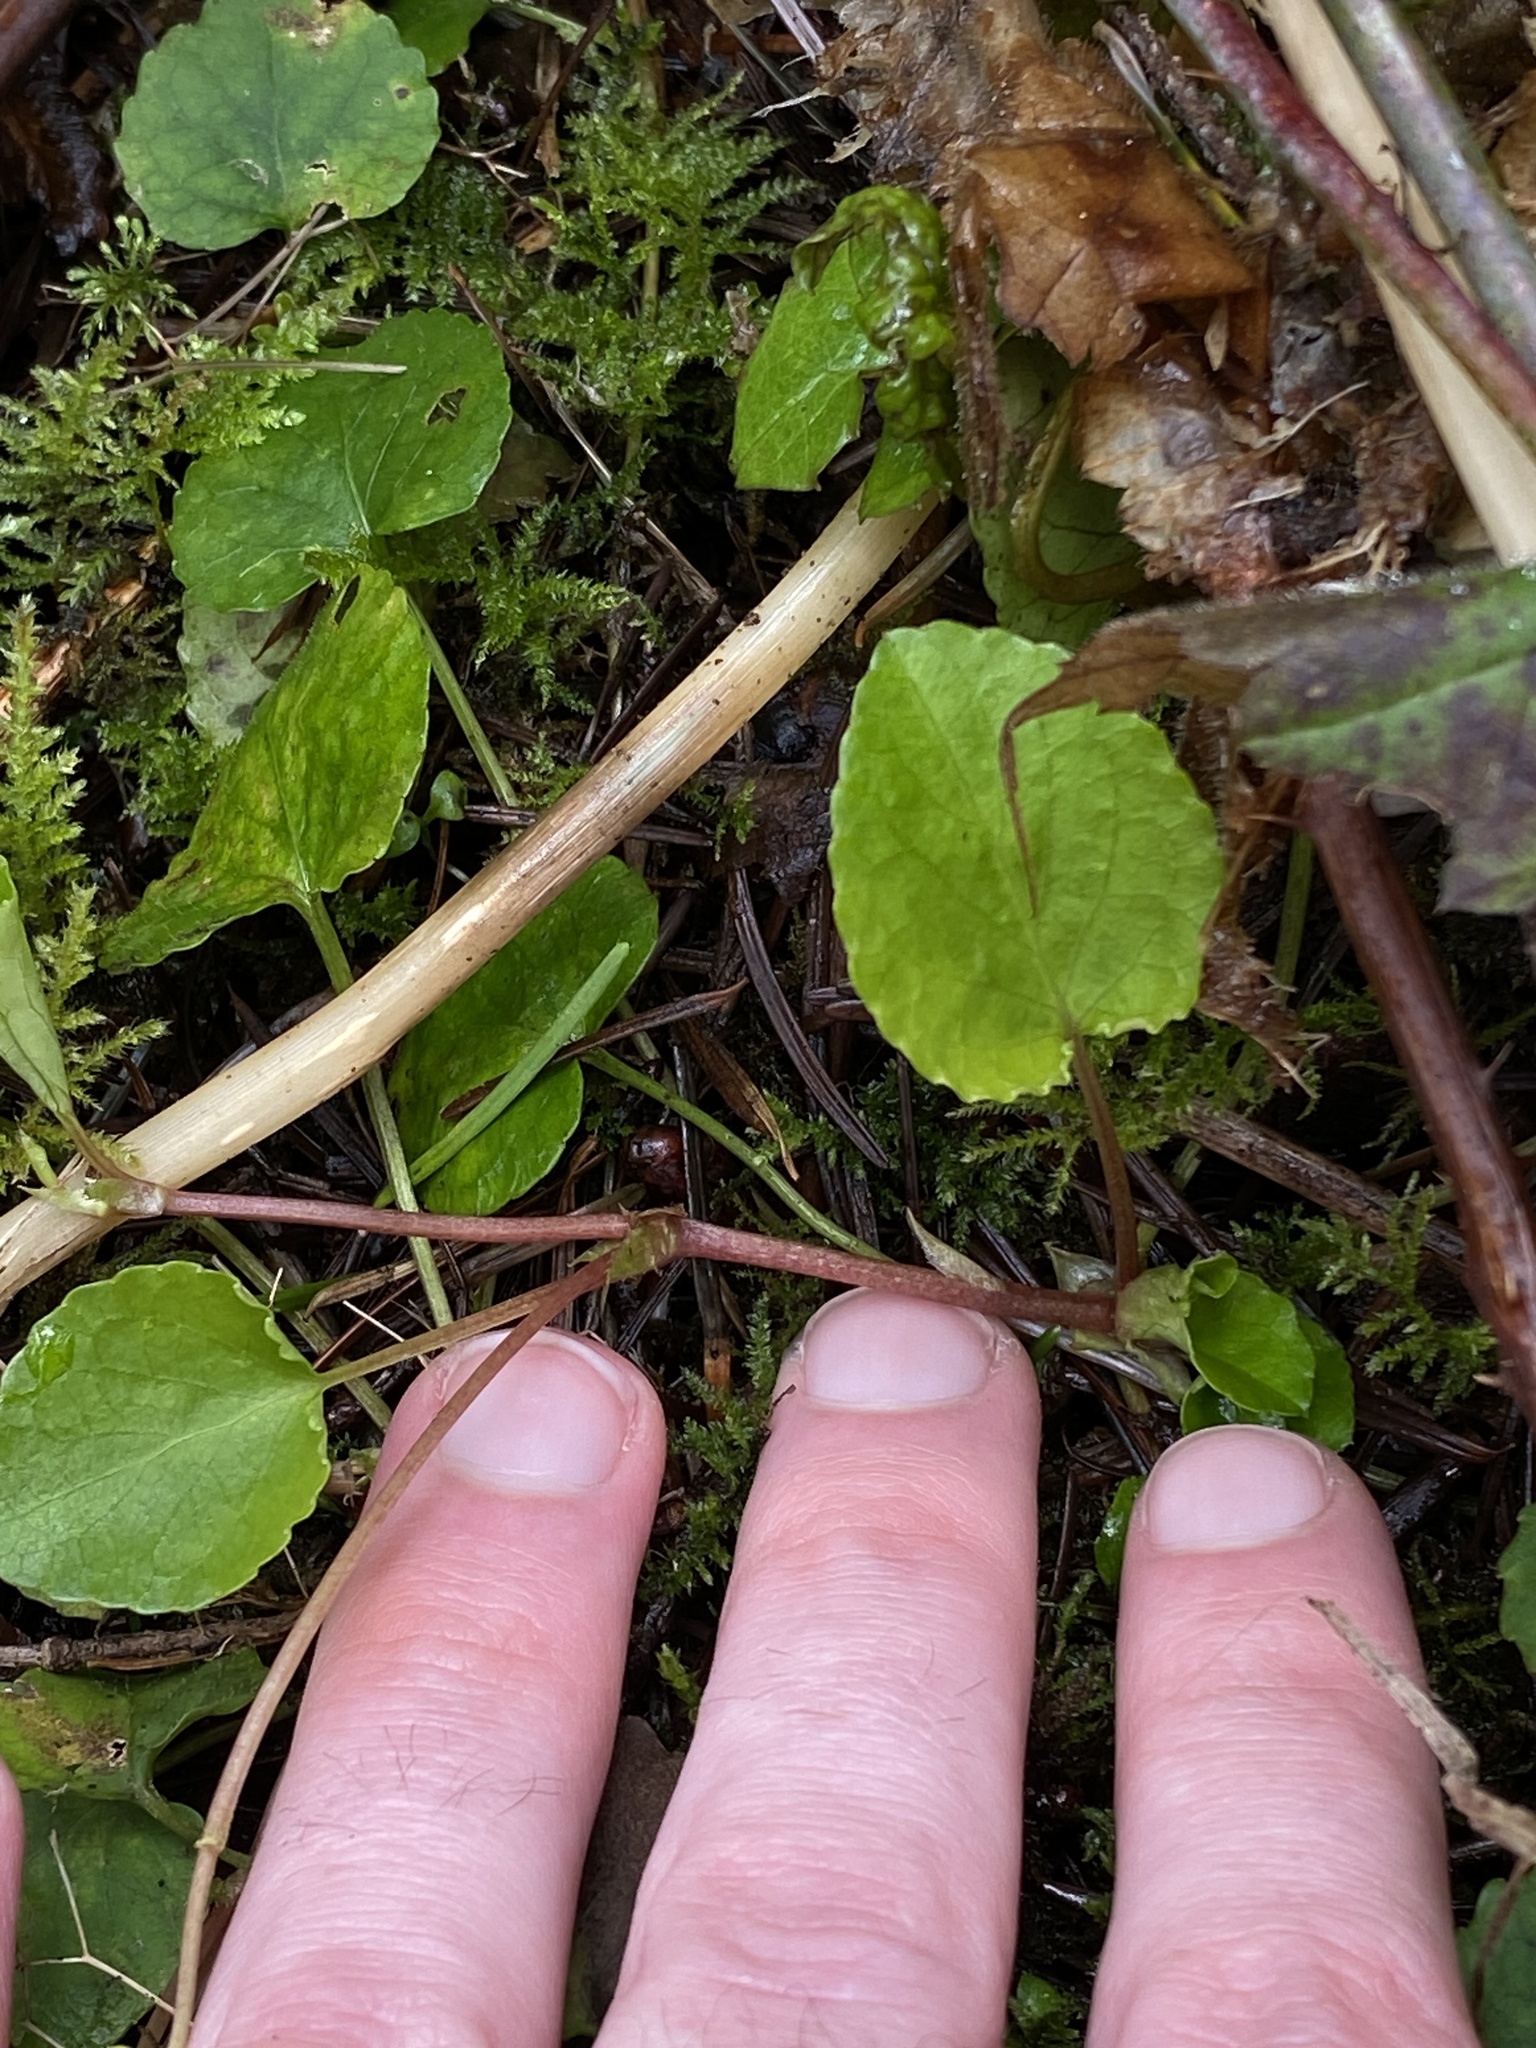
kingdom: Plantae
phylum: Tracheophyta
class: Magnoliopsida
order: Malpighiales
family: Violaceae
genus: Viola
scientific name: Viola sempervirens
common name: Evergreen violet
